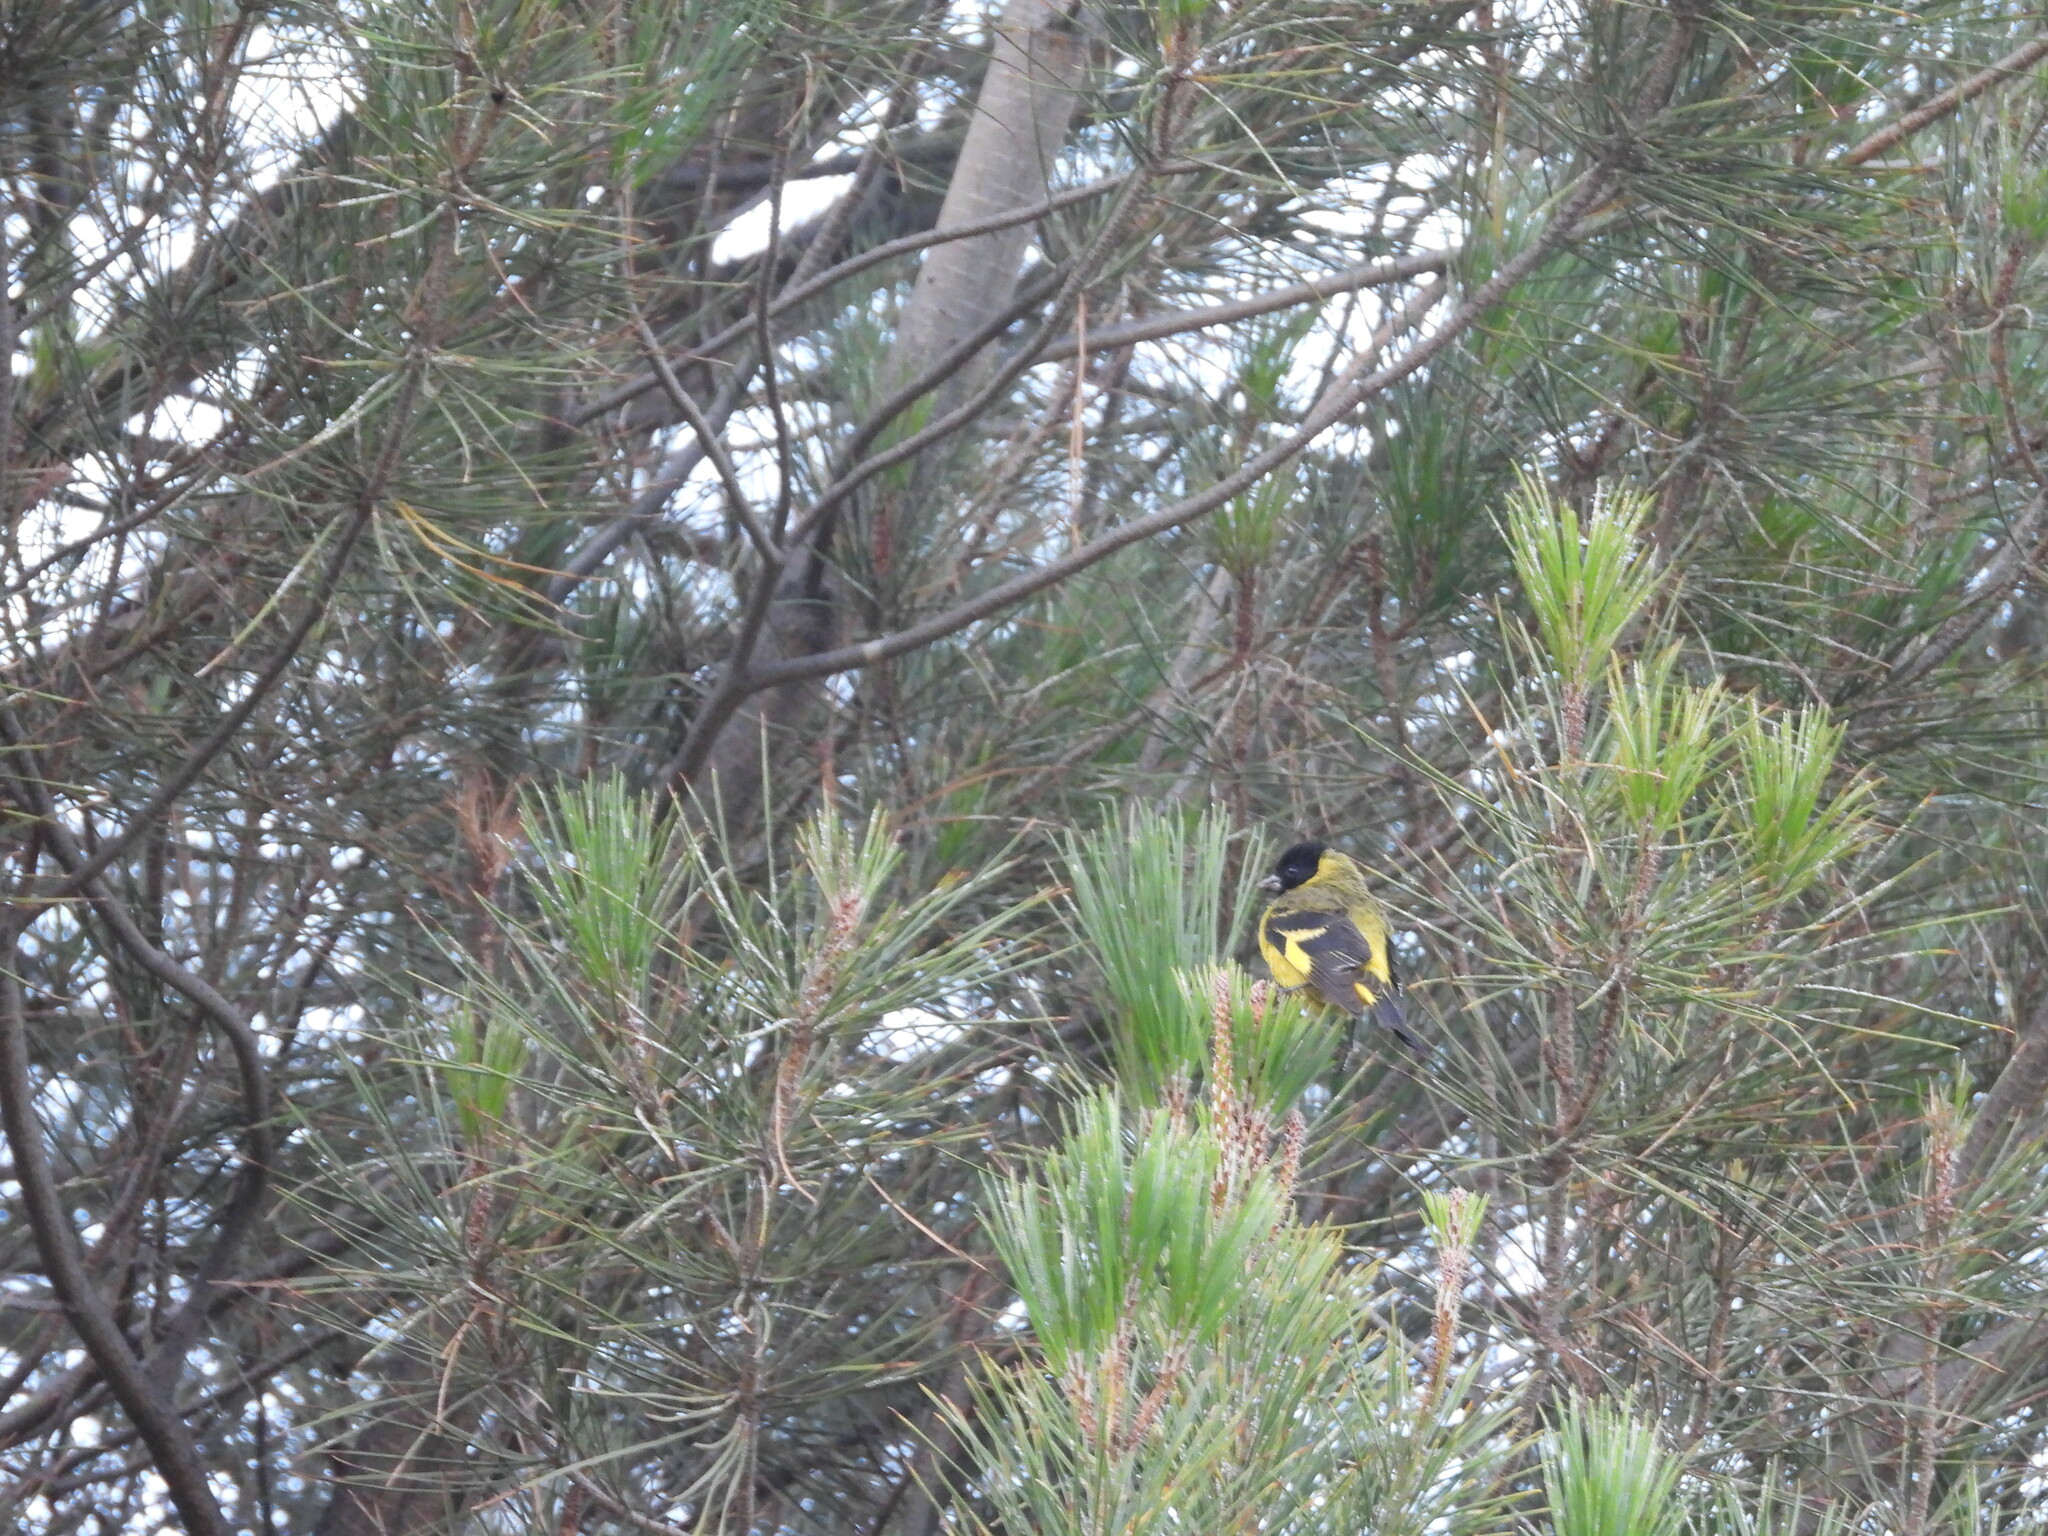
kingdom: Animalia
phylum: Chordata
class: Aves
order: Passeriformes
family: Fringillidae
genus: Spinus
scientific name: Spinus magellanicus
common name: Hooded siskin
